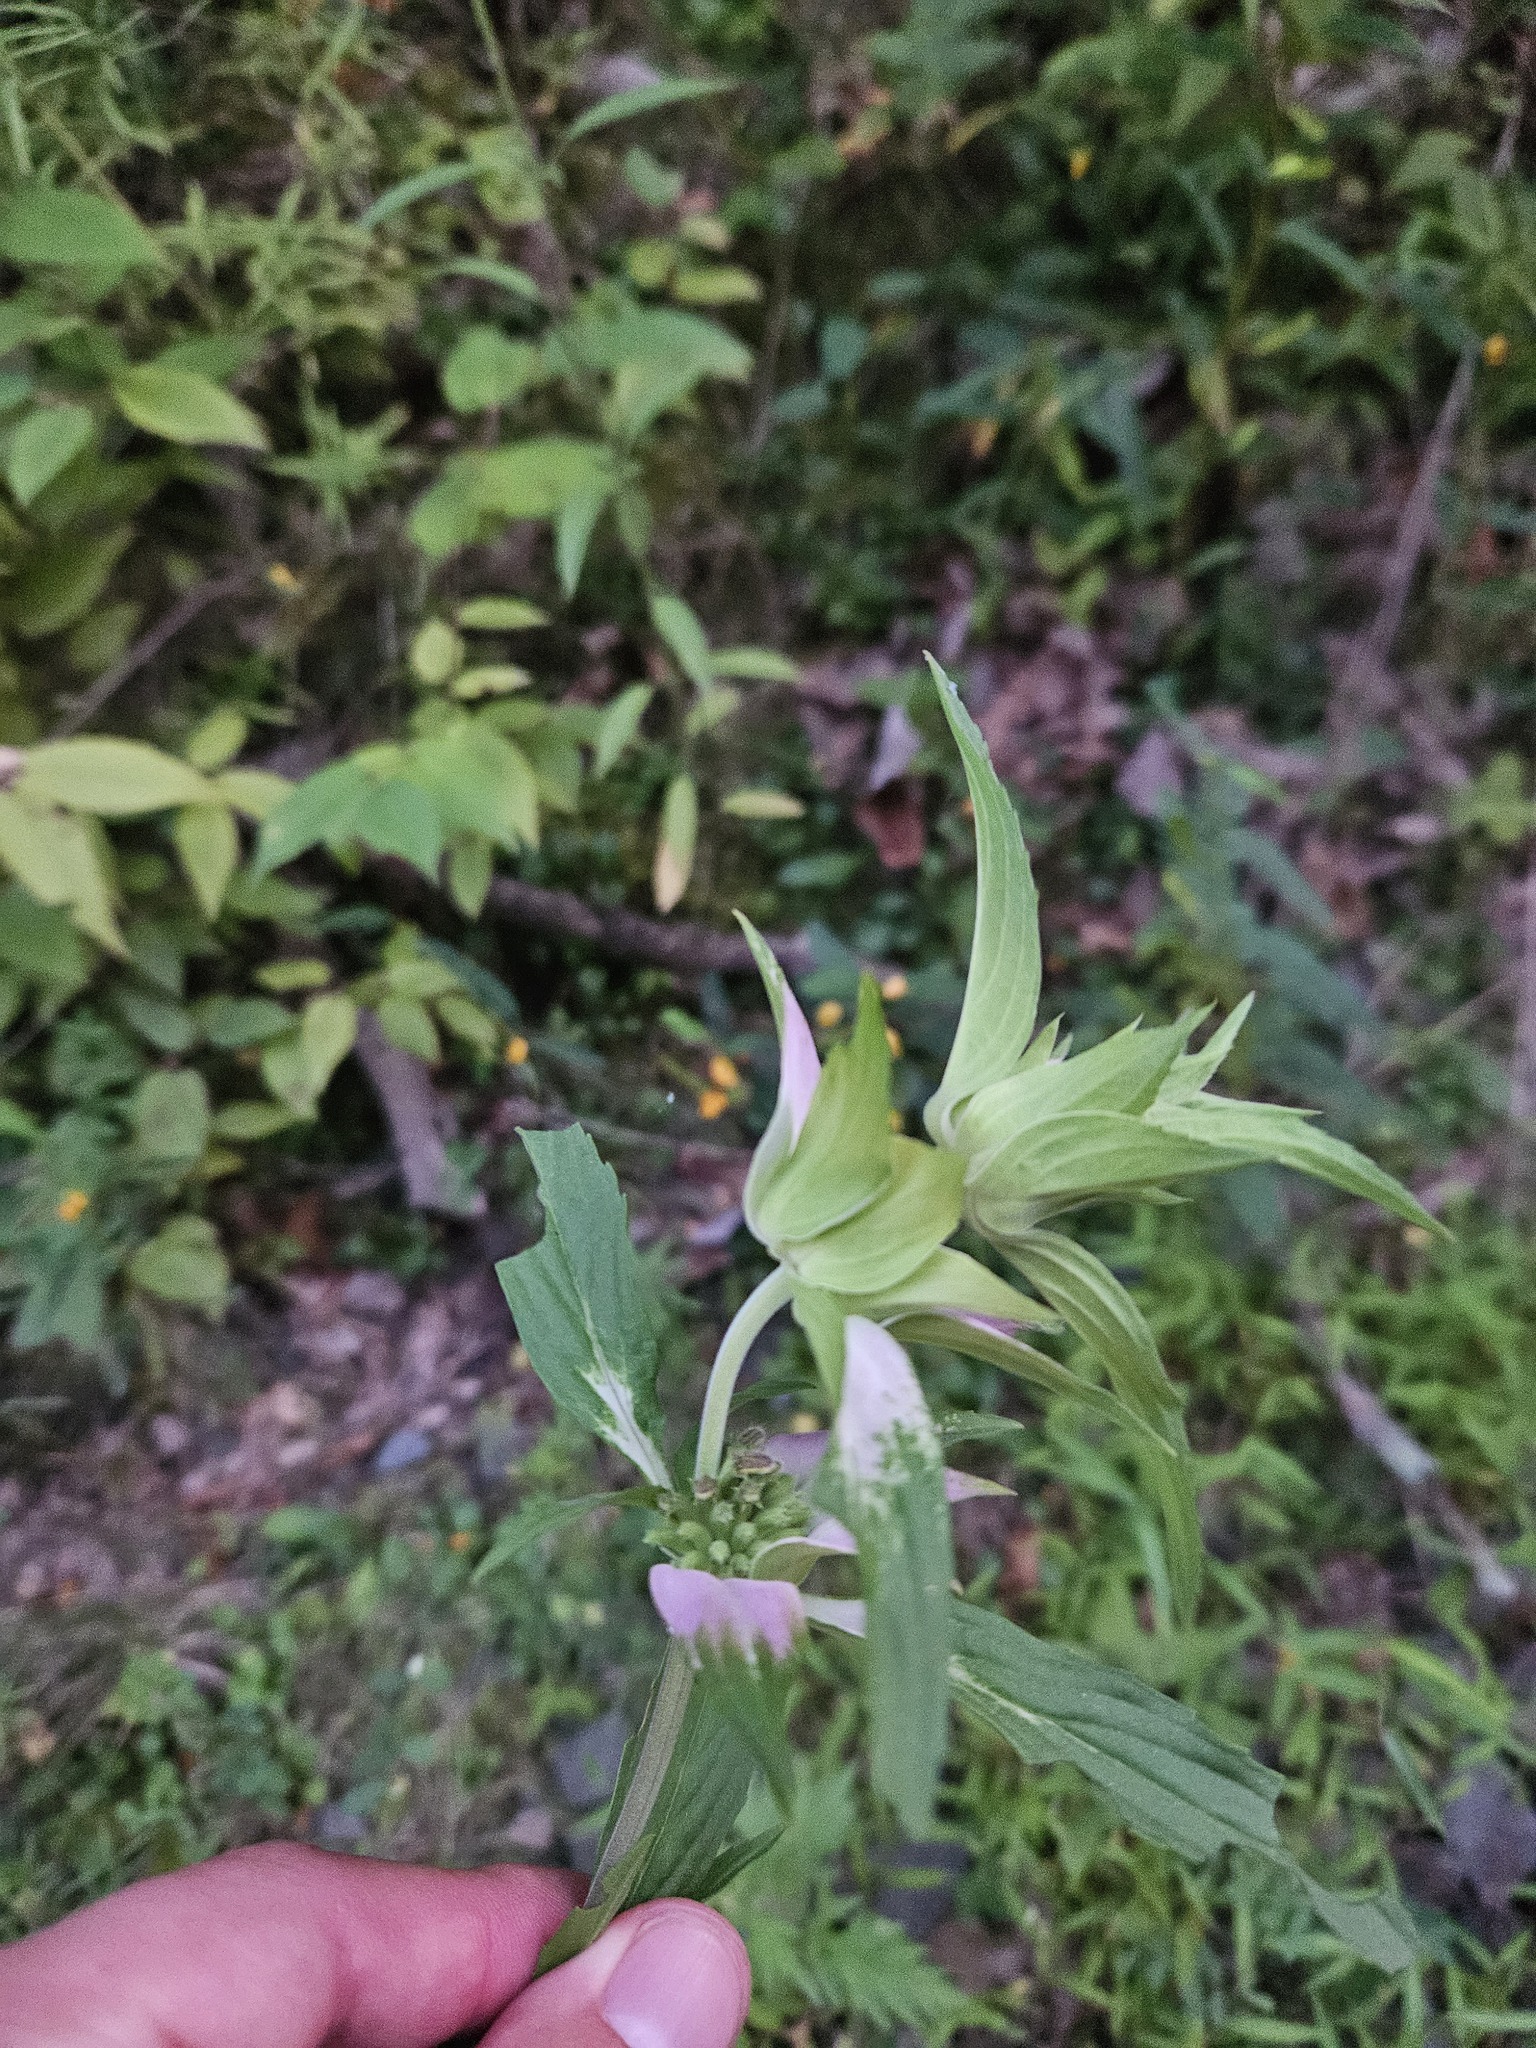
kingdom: Plantae
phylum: Tracheophyta
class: Magnoliopsida
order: Lamiales
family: Lamiaceae
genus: Monarda
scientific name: Monarda punctata
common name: Dotted monarda
